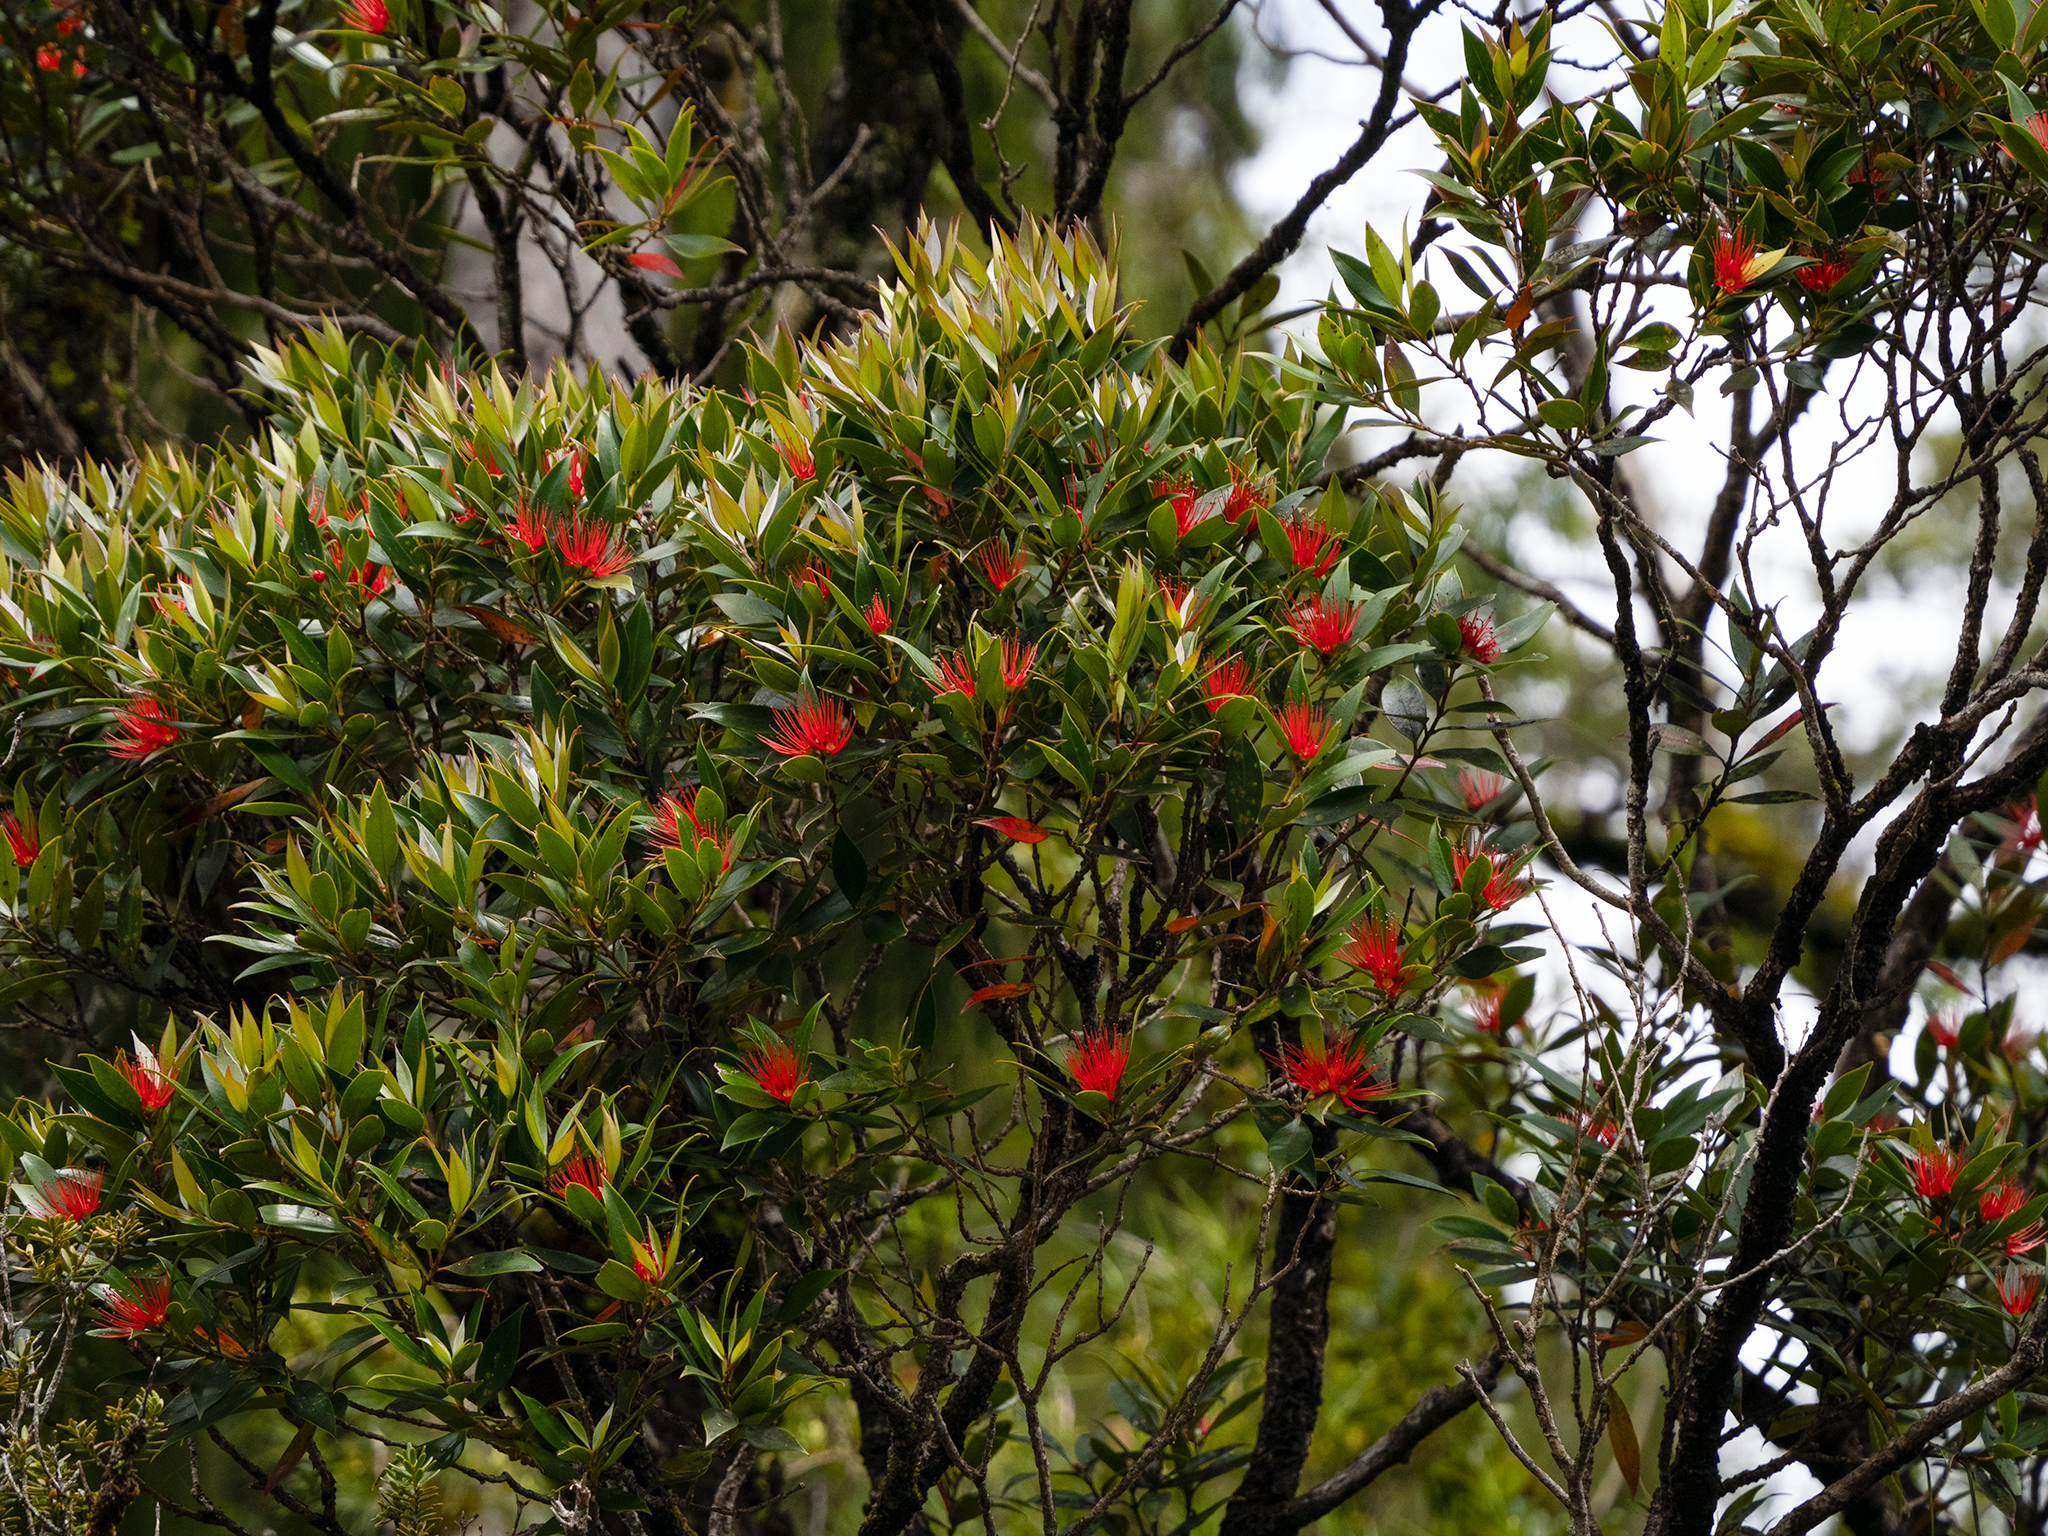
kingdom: Plantae
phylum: Tracheophyta
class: Magnoliopsida
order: Myrtales
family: Myrtaceae
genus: Metrosideros
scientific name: Metrosideros umbellata
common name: Southern rata
